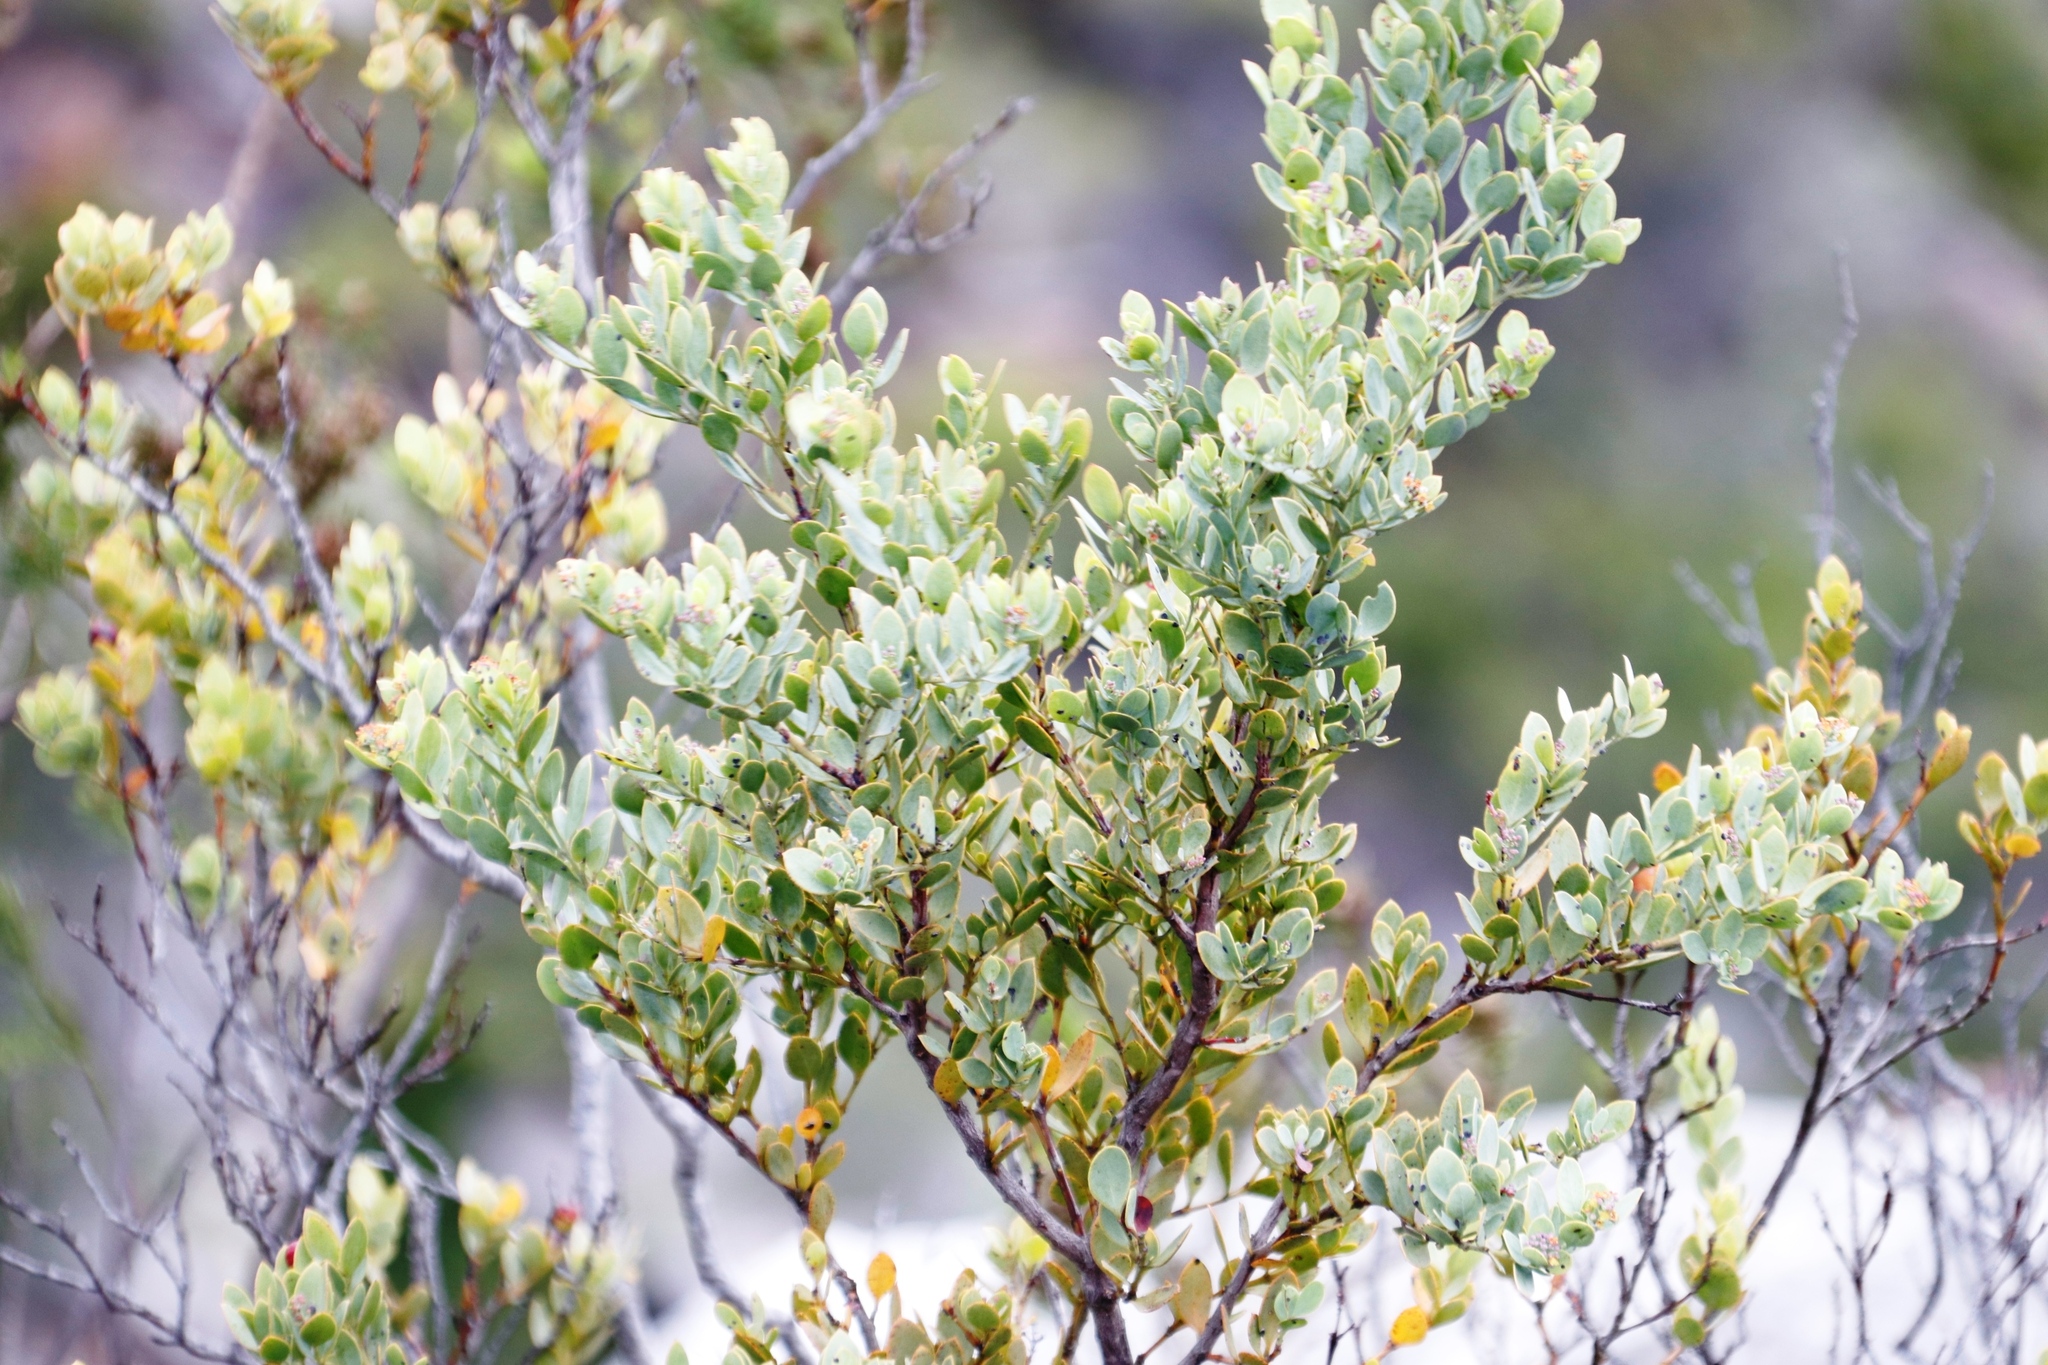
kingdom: Plantae
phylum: Tracheophyta
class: Magnoliopsida
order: Santalales
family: Santalaceae
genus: Osyris
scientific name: Osyris compressa
